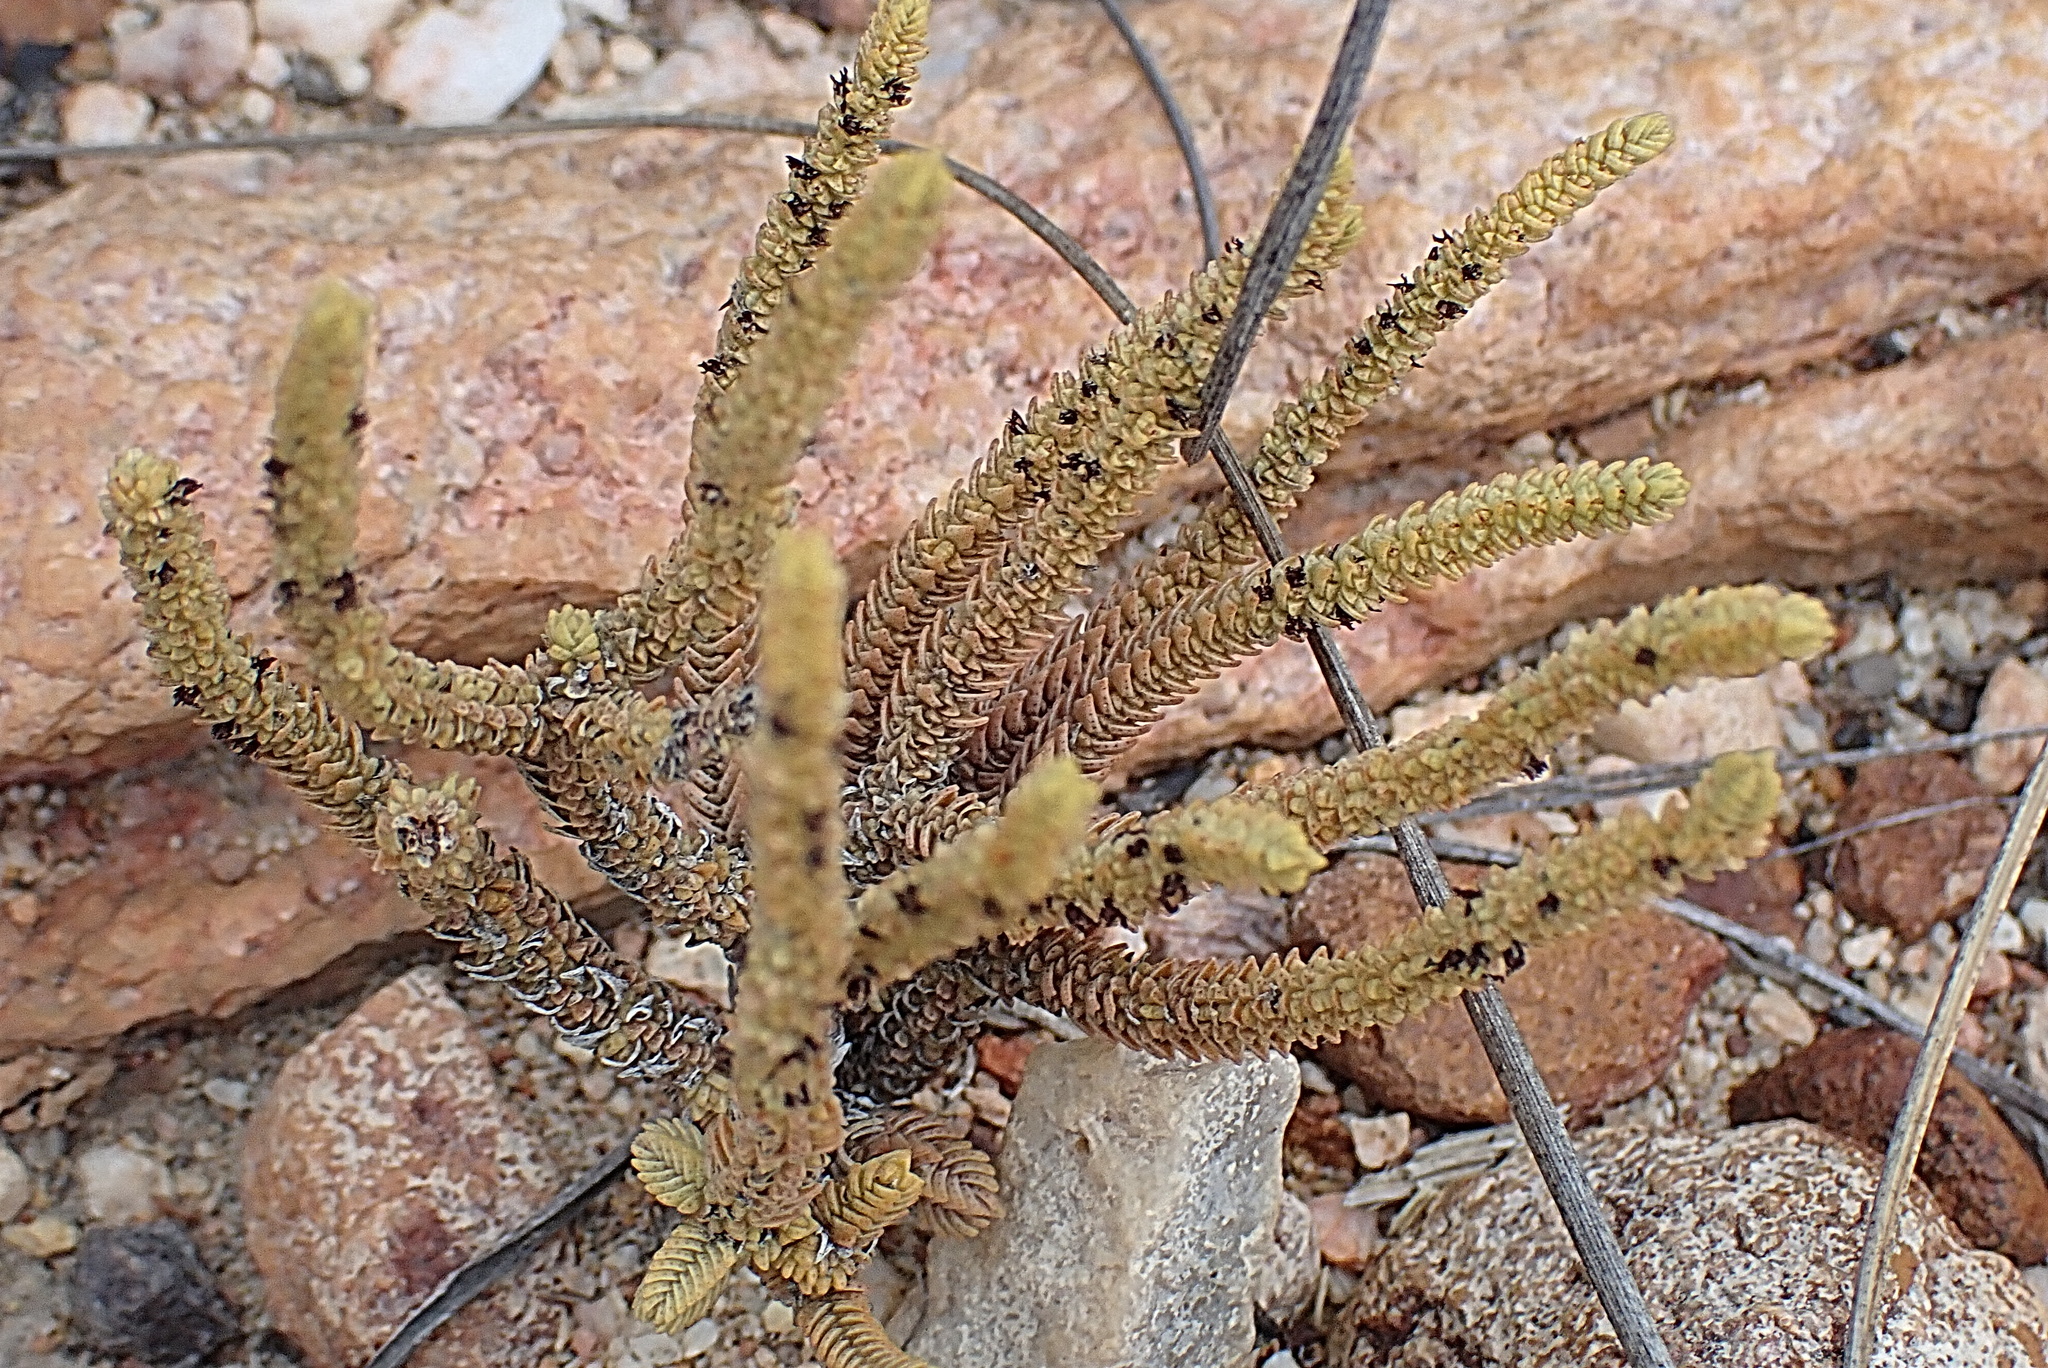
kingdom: Plantae
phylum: Tracheophyta
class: Magnoliopsida
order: Saxifragales
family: Crassulaceae
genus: Crassula
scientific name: Crassula muscosa
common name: Toy-cypress
